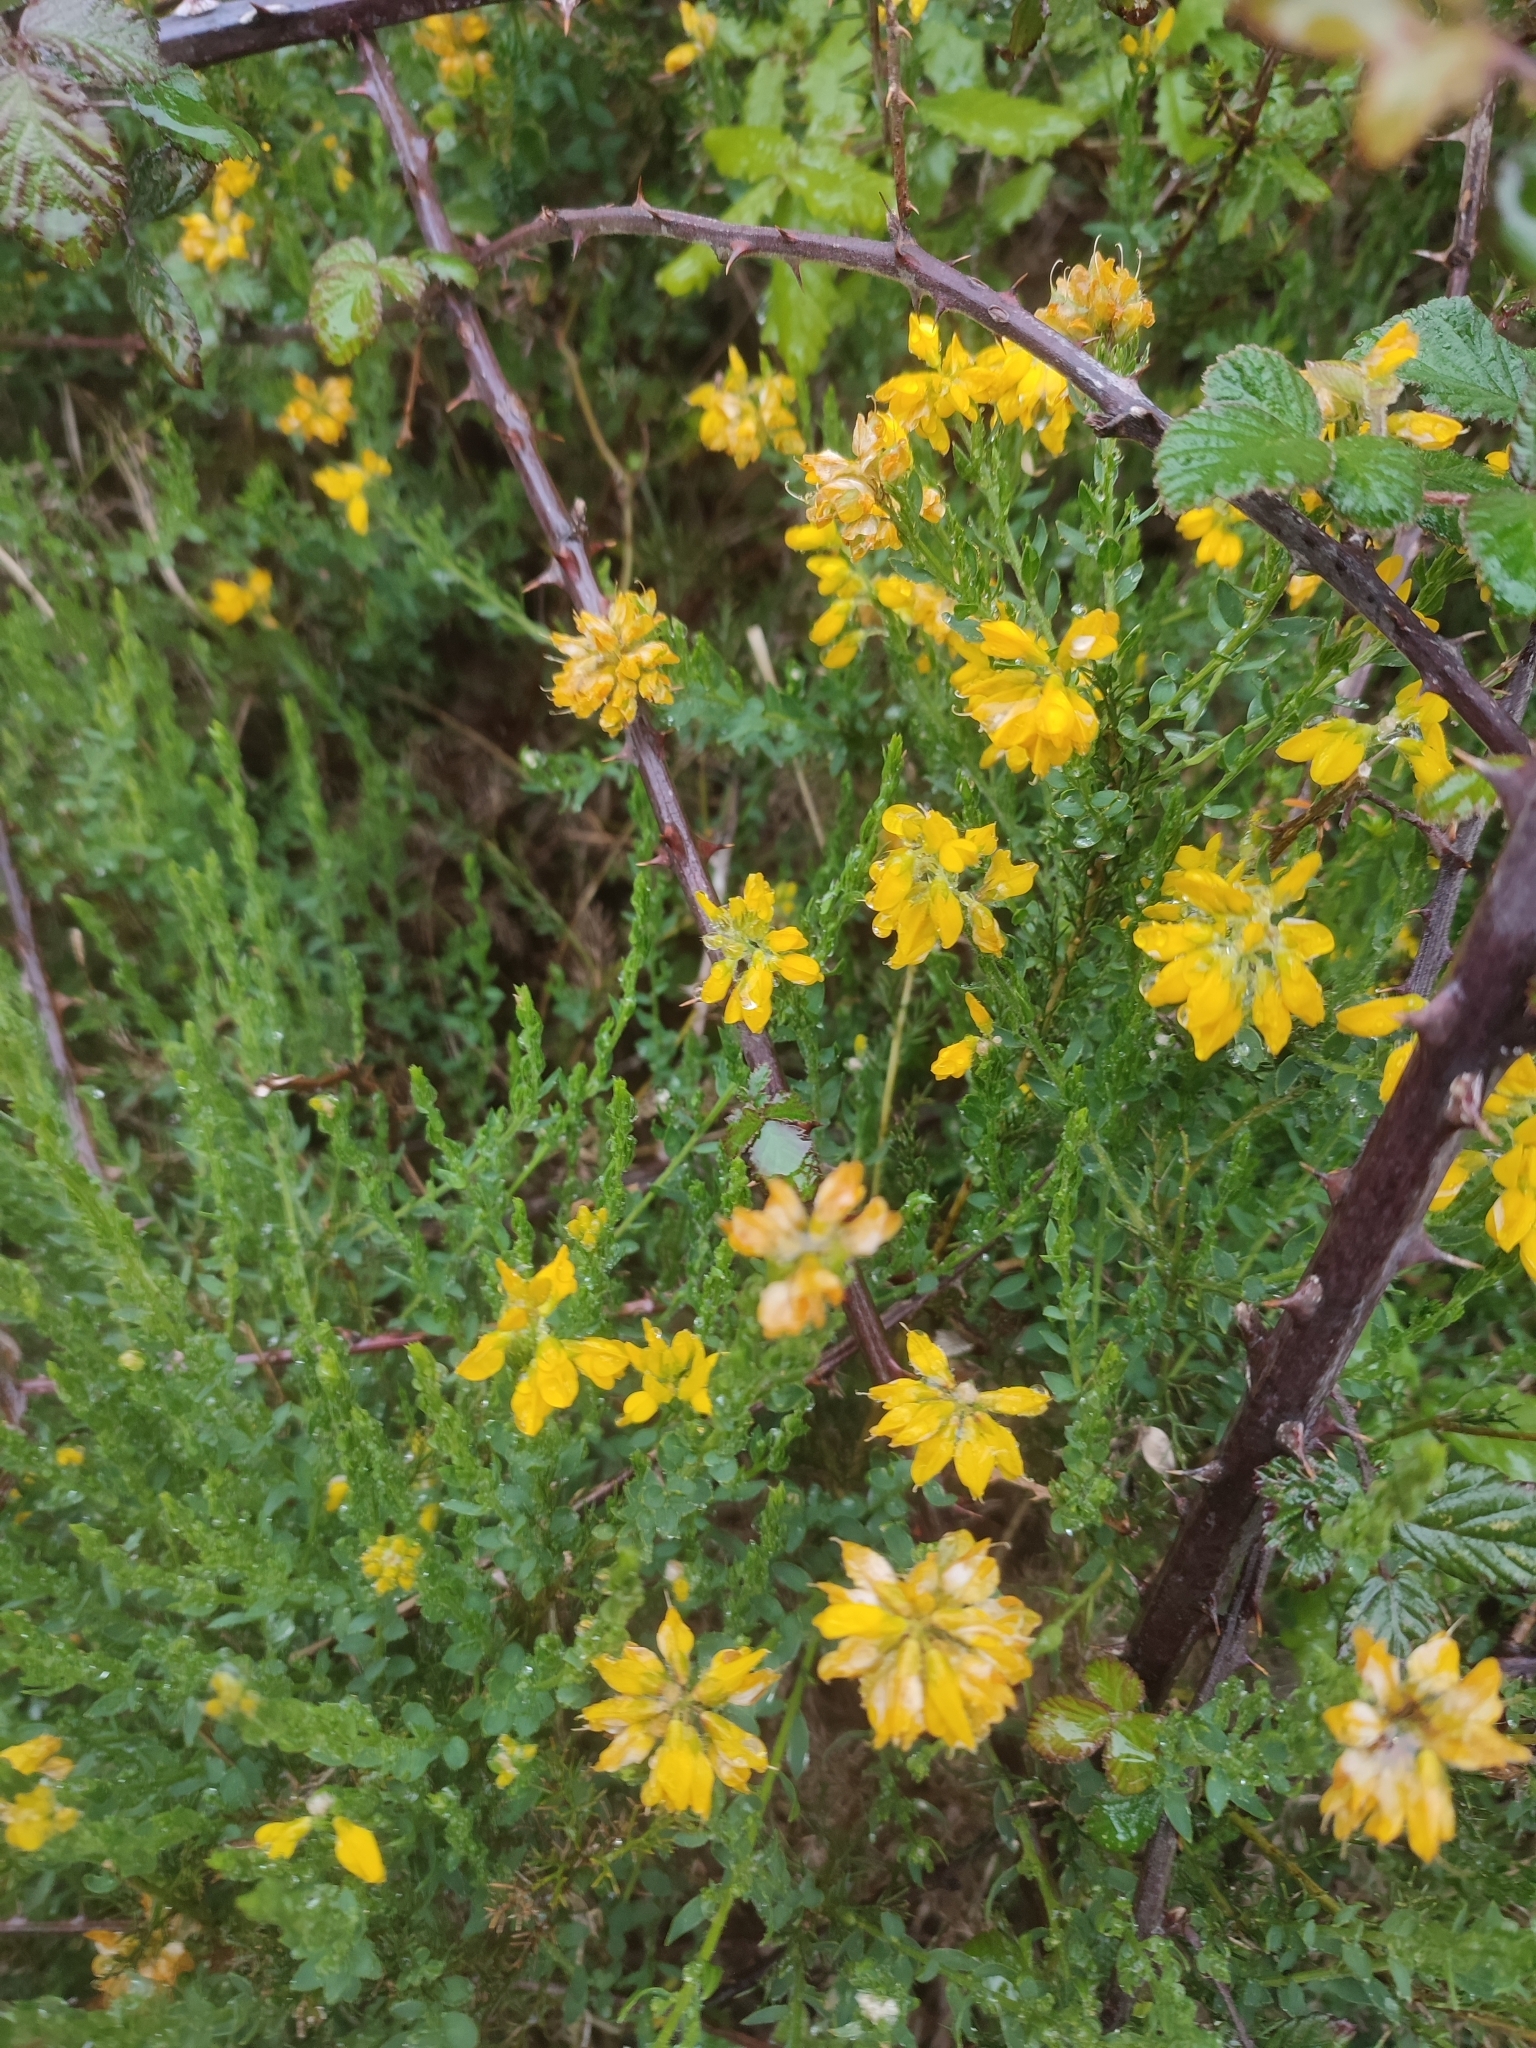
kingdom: Plantae
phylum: Tracheophyta
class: Magnoliopsida
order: Fabales
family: Fabaceae
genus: Genista
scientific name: Genista hispanica
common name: Spanish gorse
